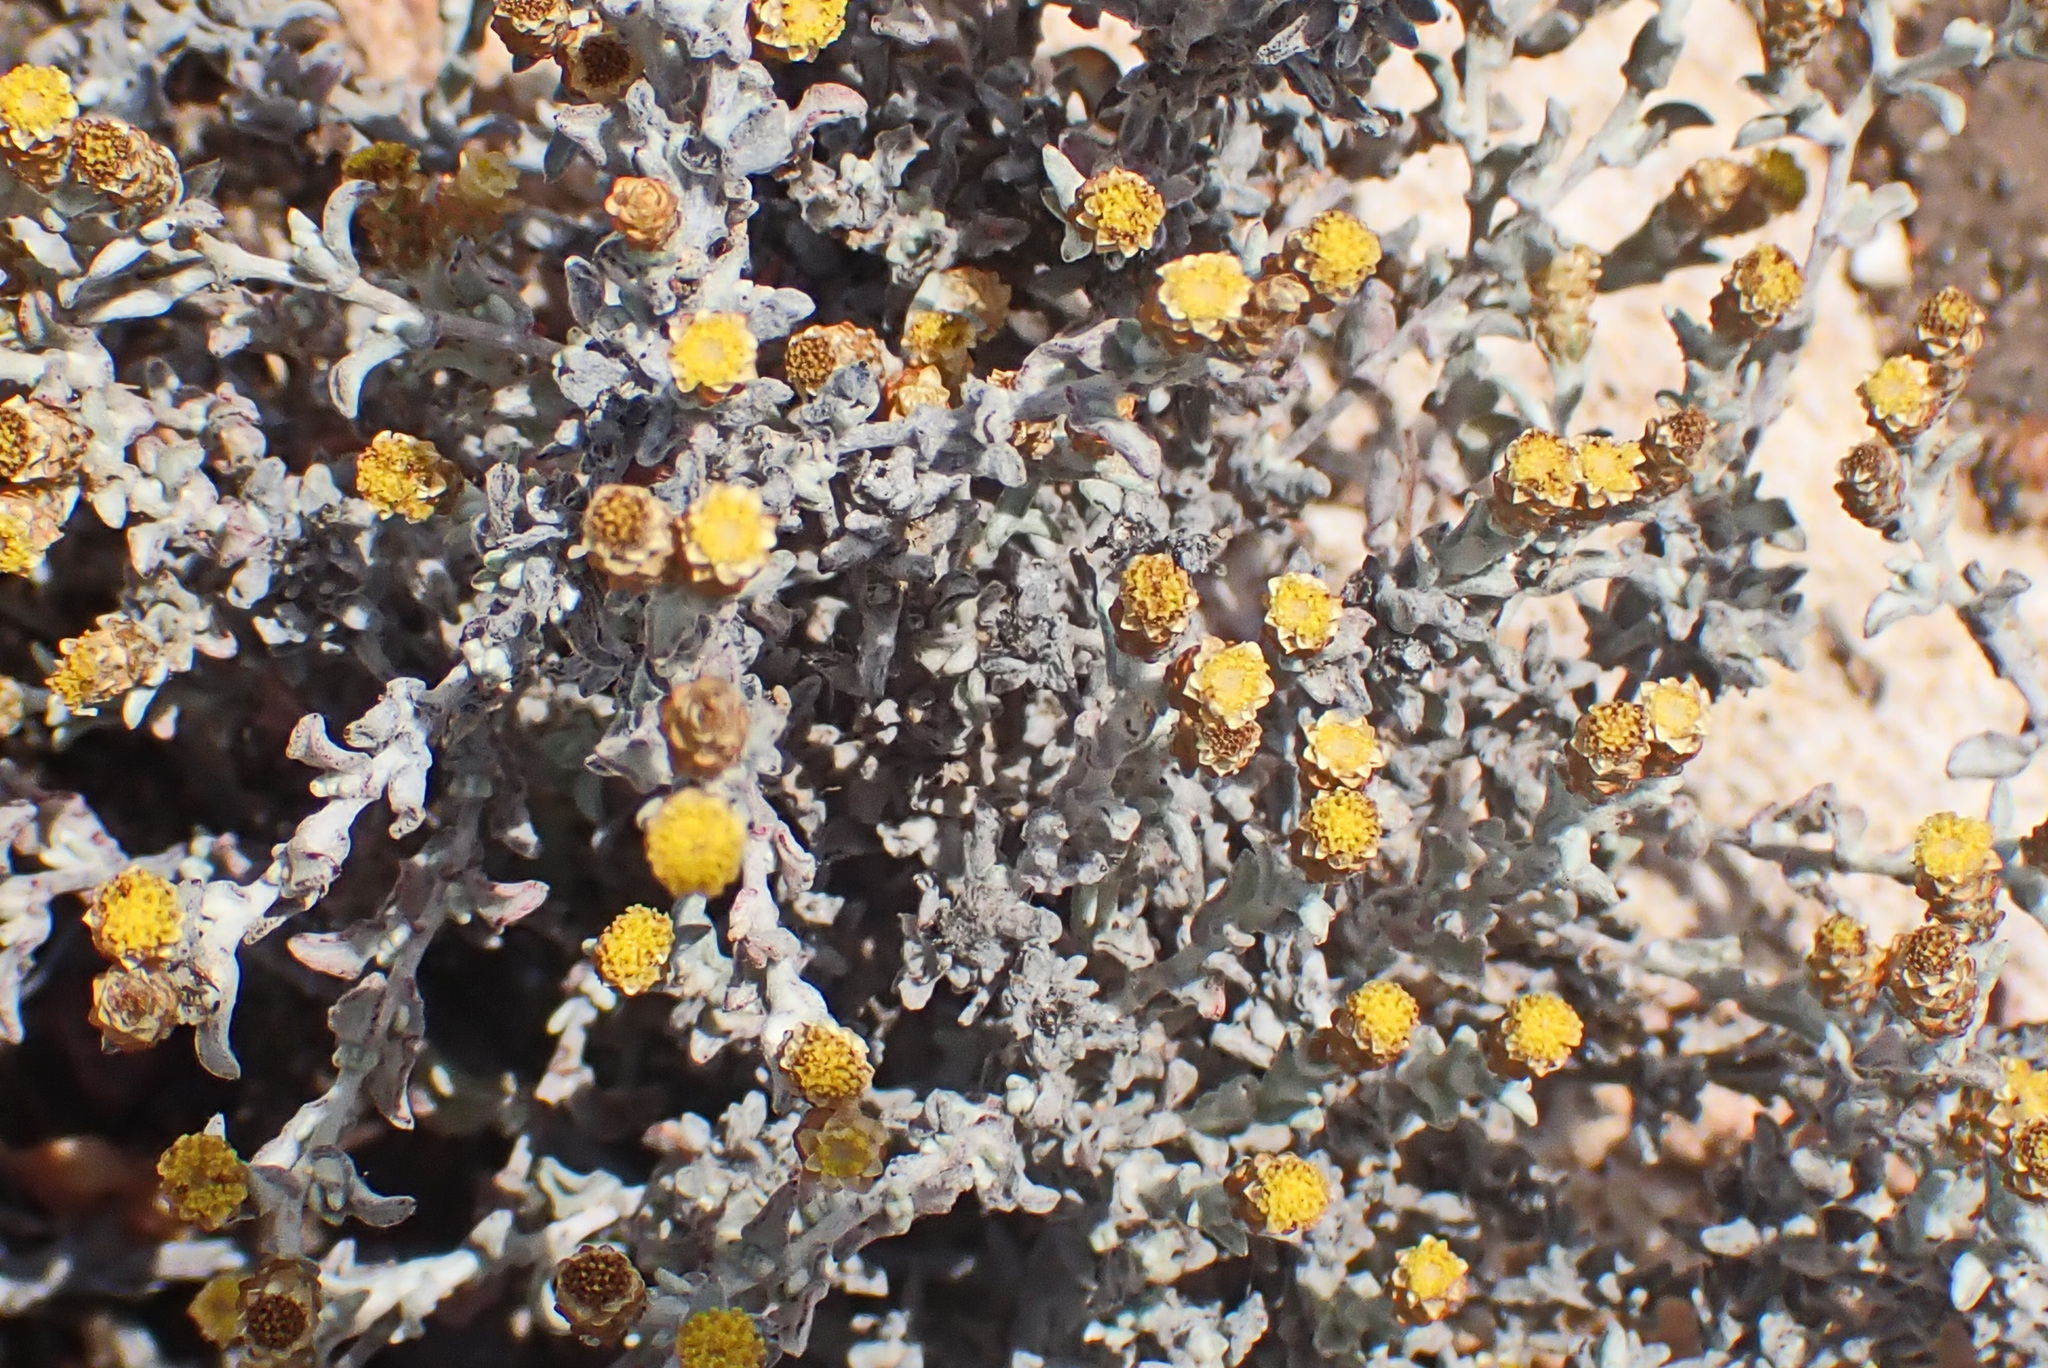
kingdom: Plantae
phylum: Tracheophyta
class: Magnoliopsida
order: Asterales
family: Asteraceae
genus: Helichrysum
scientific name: Helichrysum tinctum
